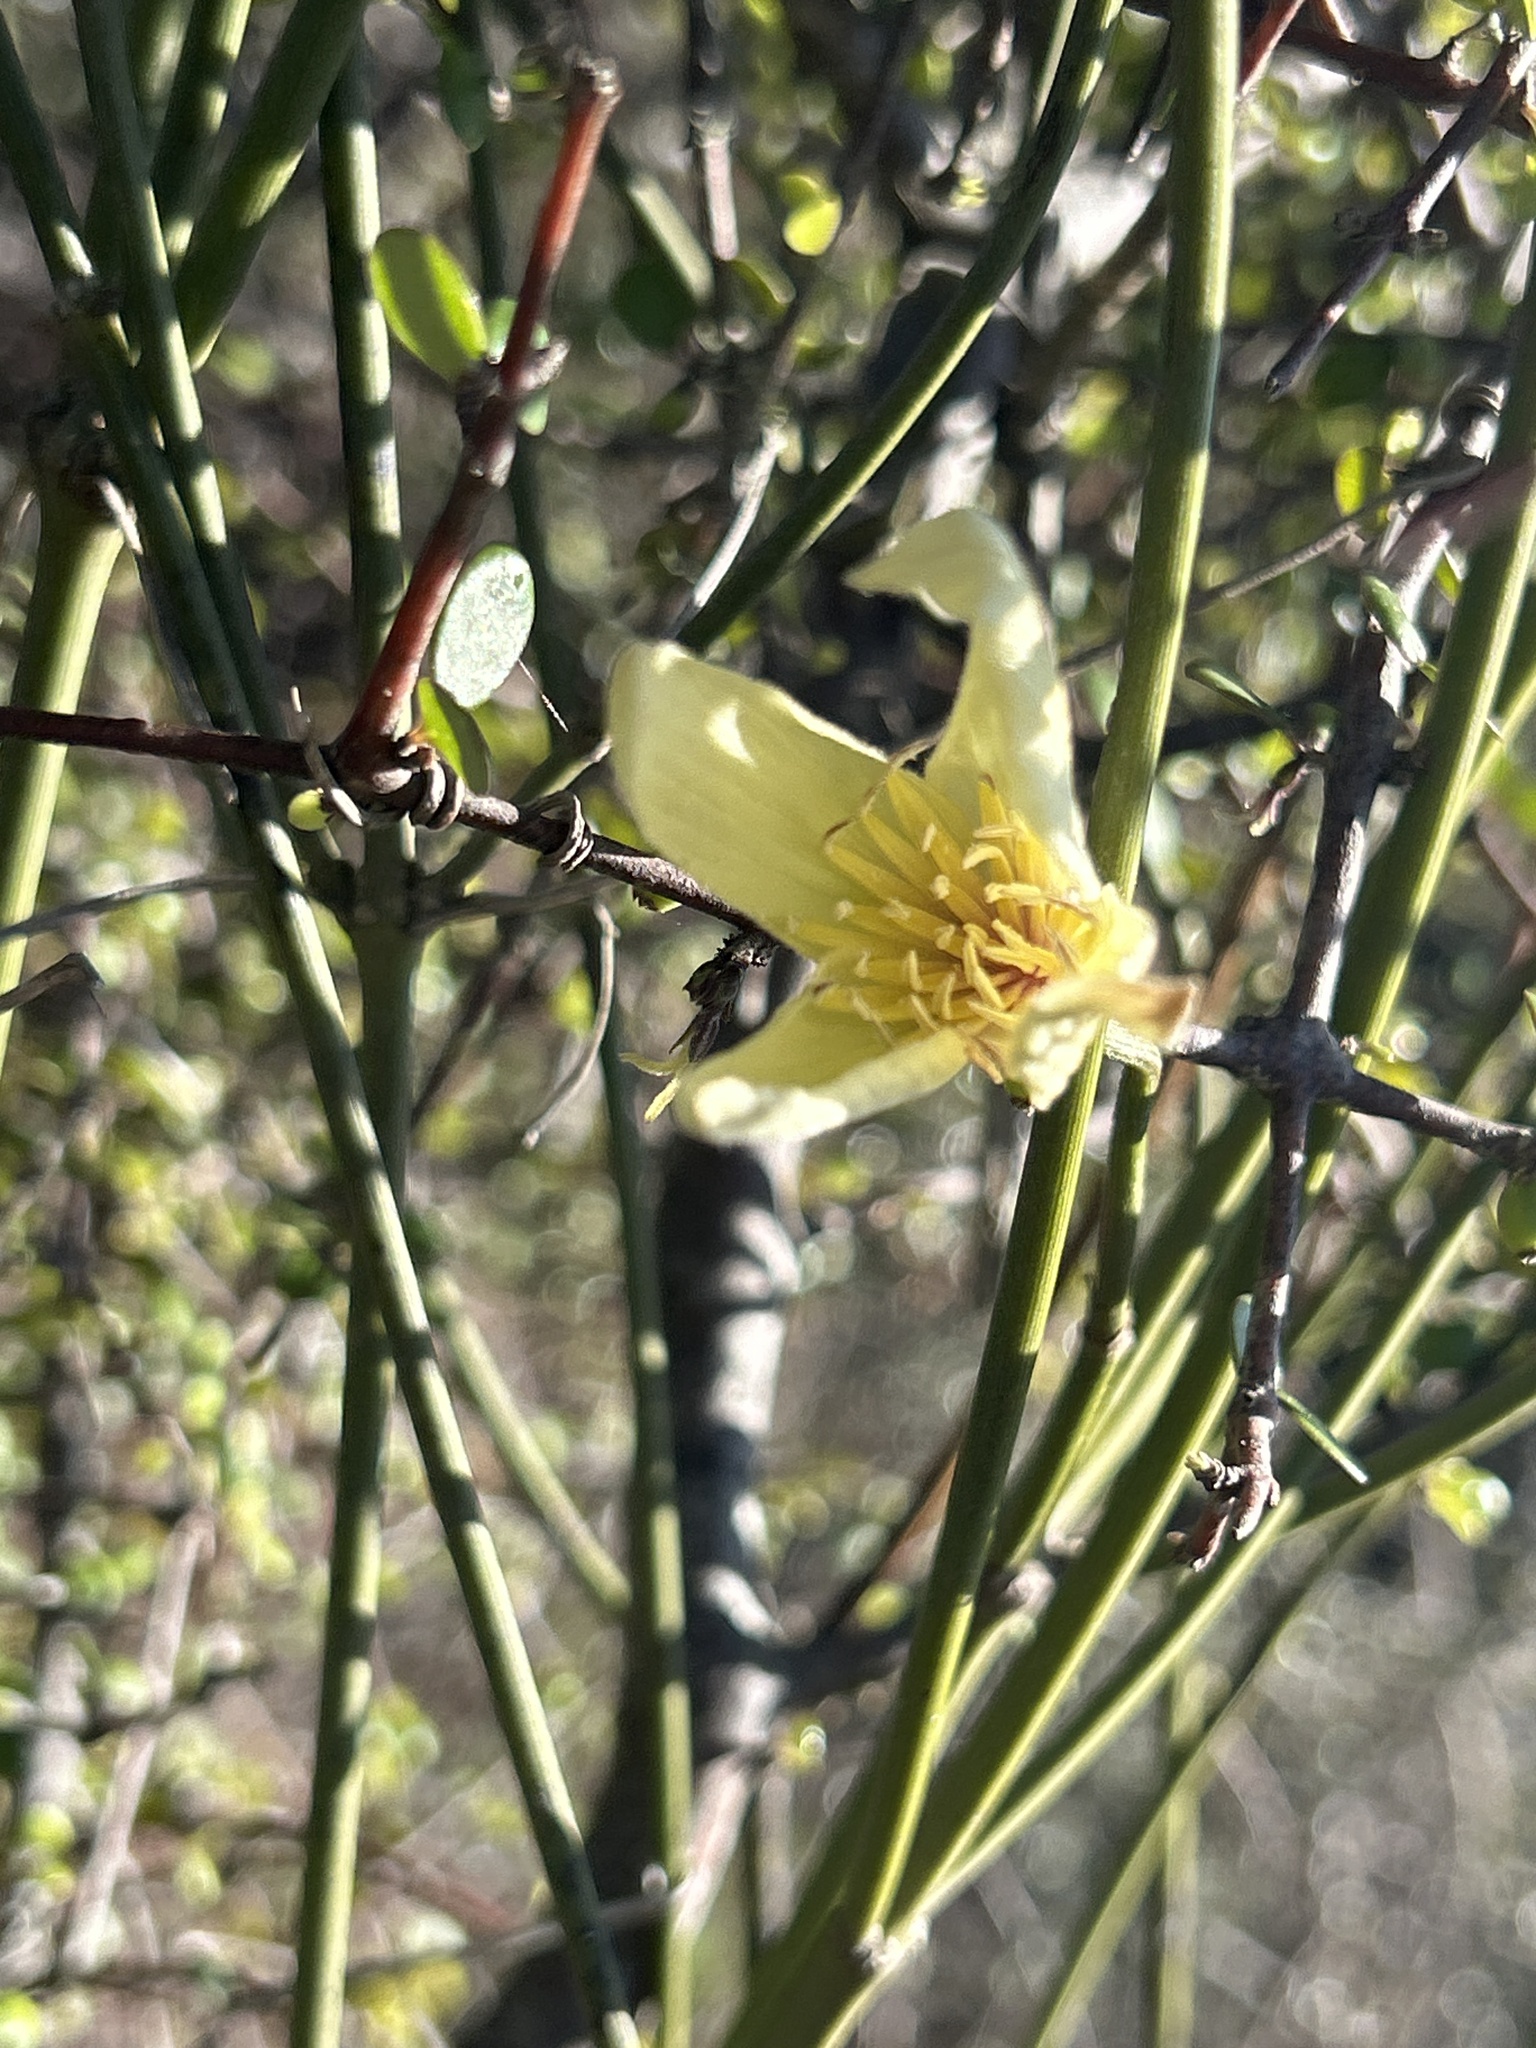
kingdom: Plantae
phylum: Tracheophyta
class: Magnoliopsida
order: Ranunculales
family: Ranunculaceae
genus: Clematis
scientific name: Clematis afoliata
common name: Rush-stem clematis
